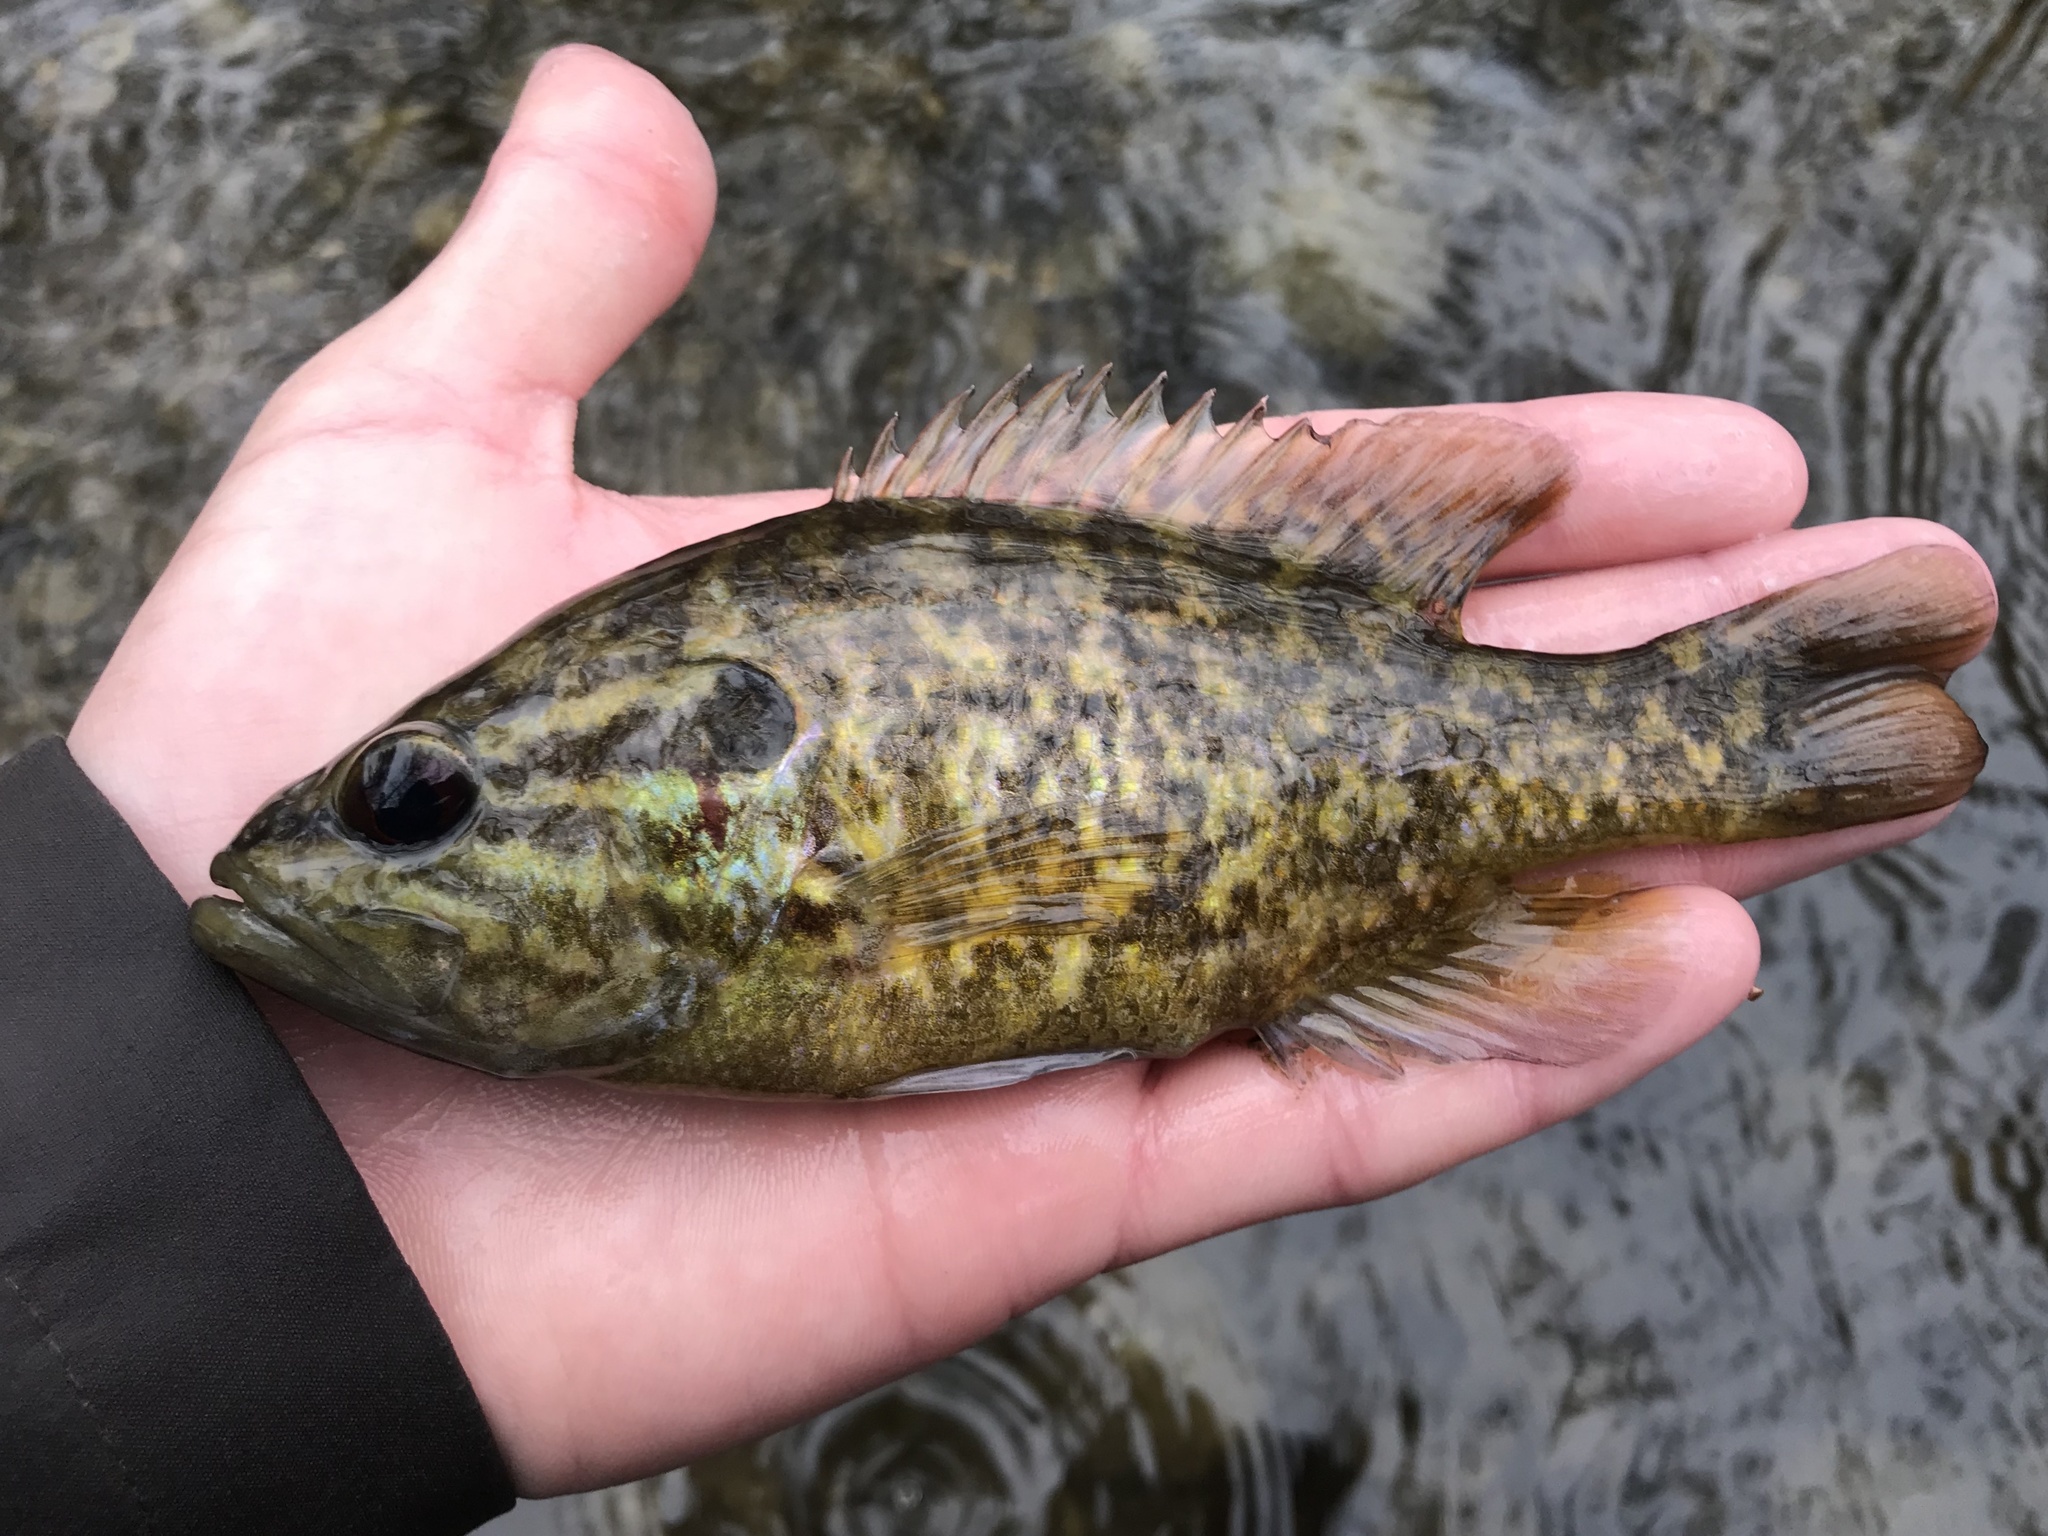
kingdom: Animalia
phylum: Chordata
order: Perciformes
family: Centrarchidae
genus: Lepomis
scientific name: Lepomis gulosus
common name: Warmouth
